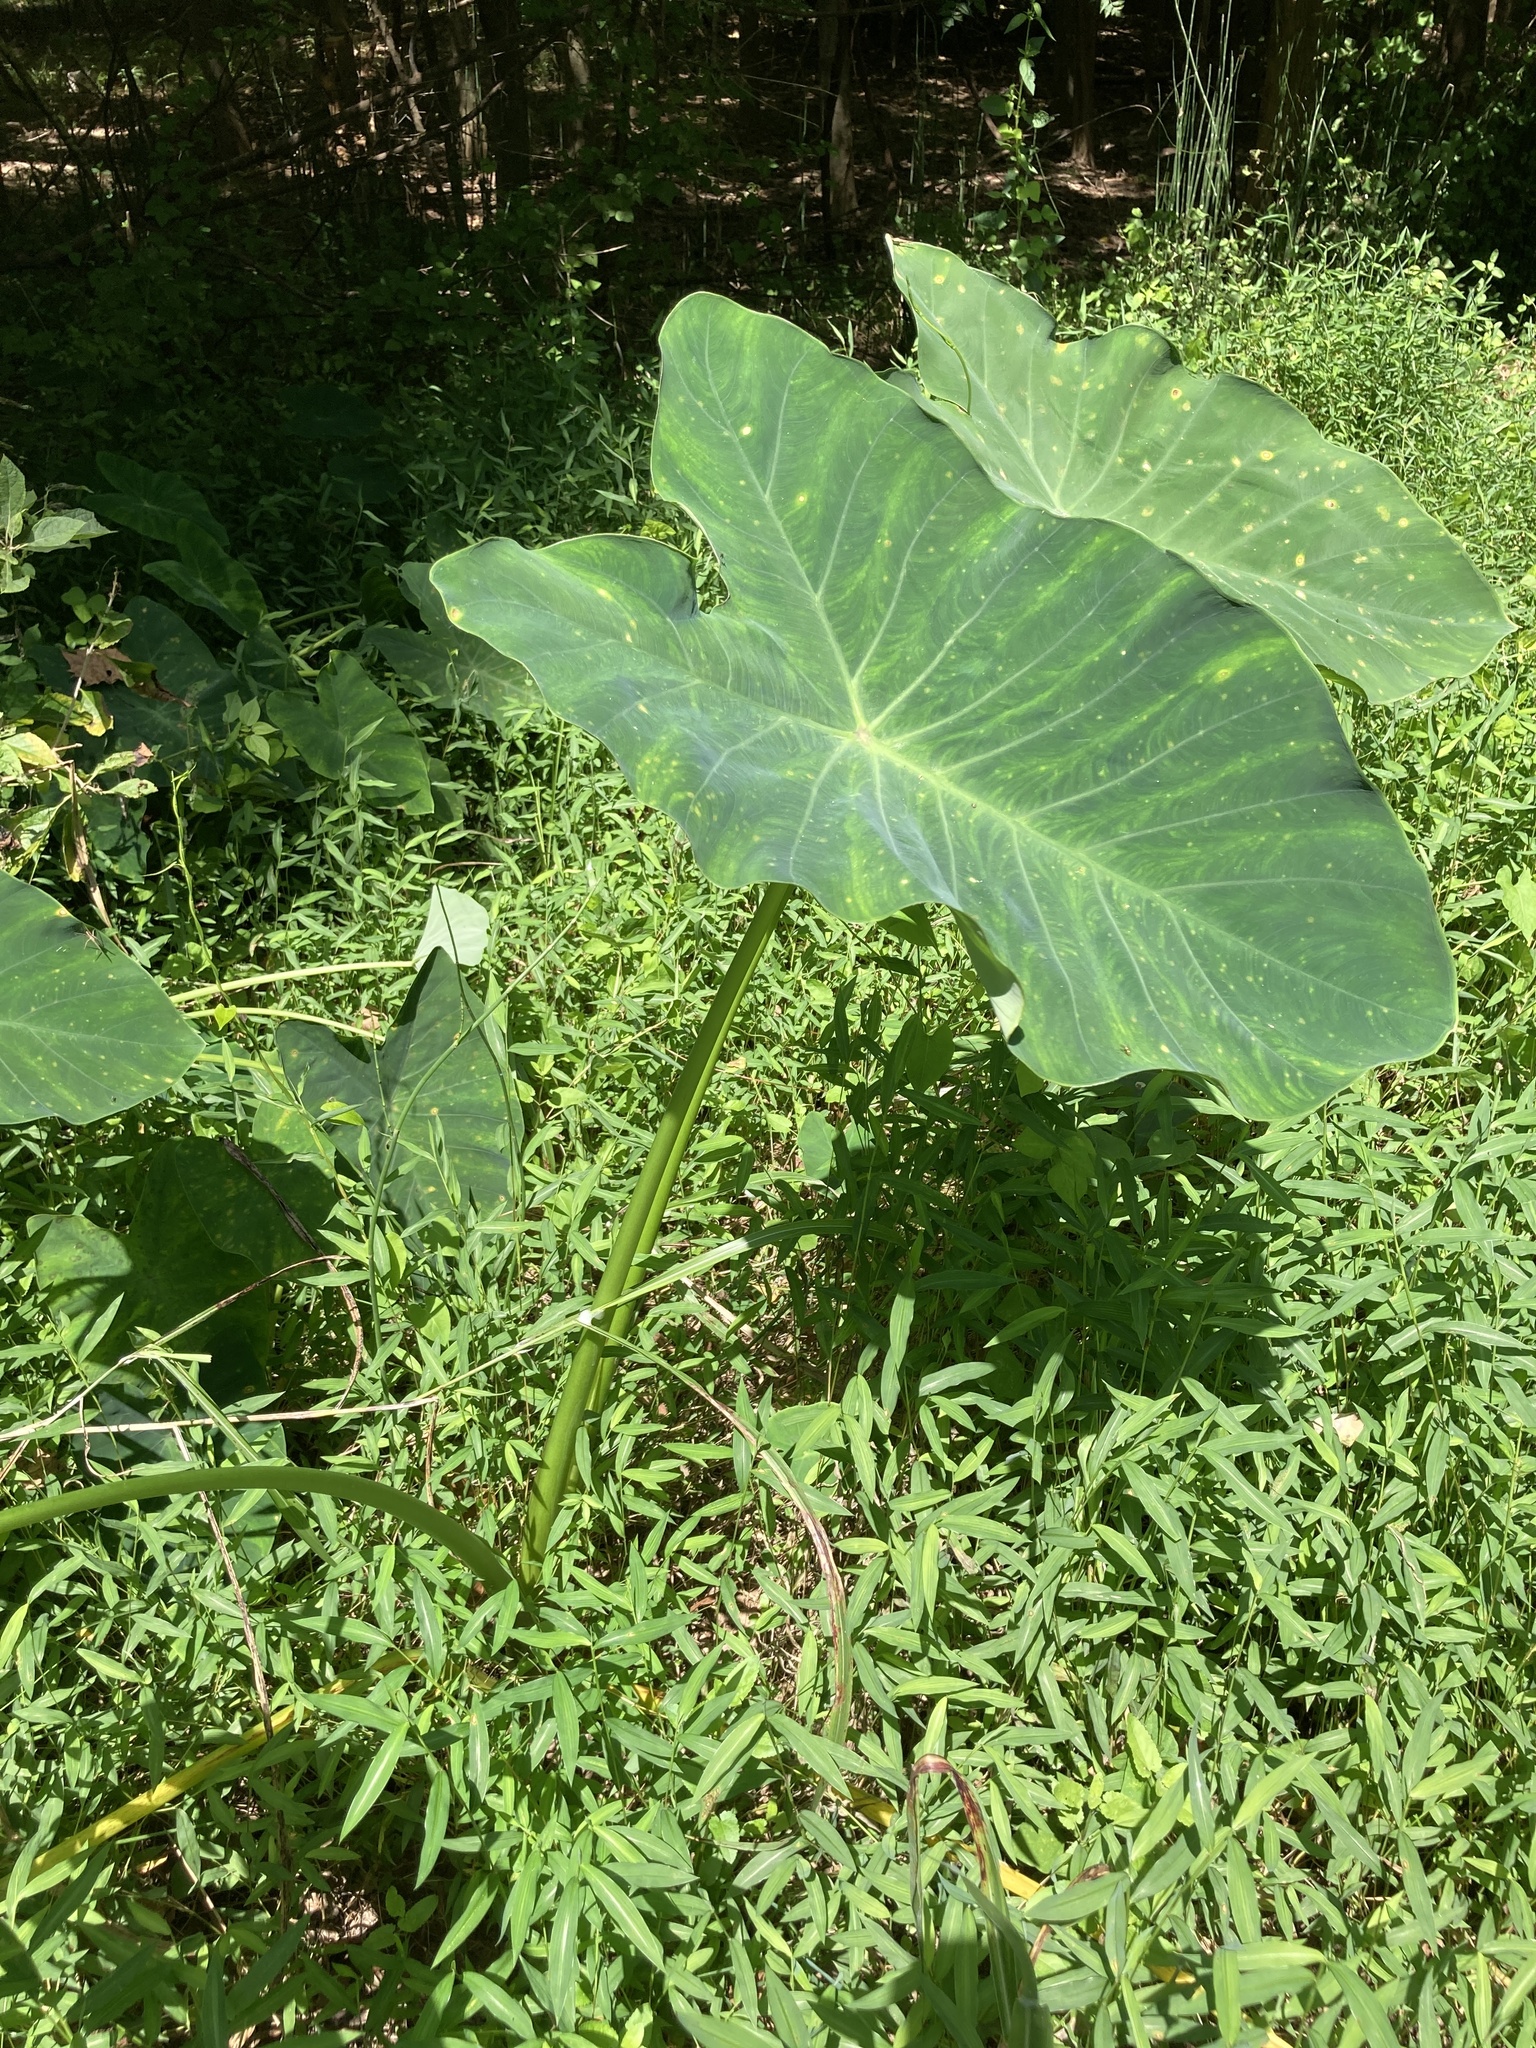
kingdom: Plantae
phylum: Tracheophyta
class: Liliopsida
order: Alismatales
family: Araceae
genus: Colocasia
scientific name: Colocasia esculenta
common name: Taro
